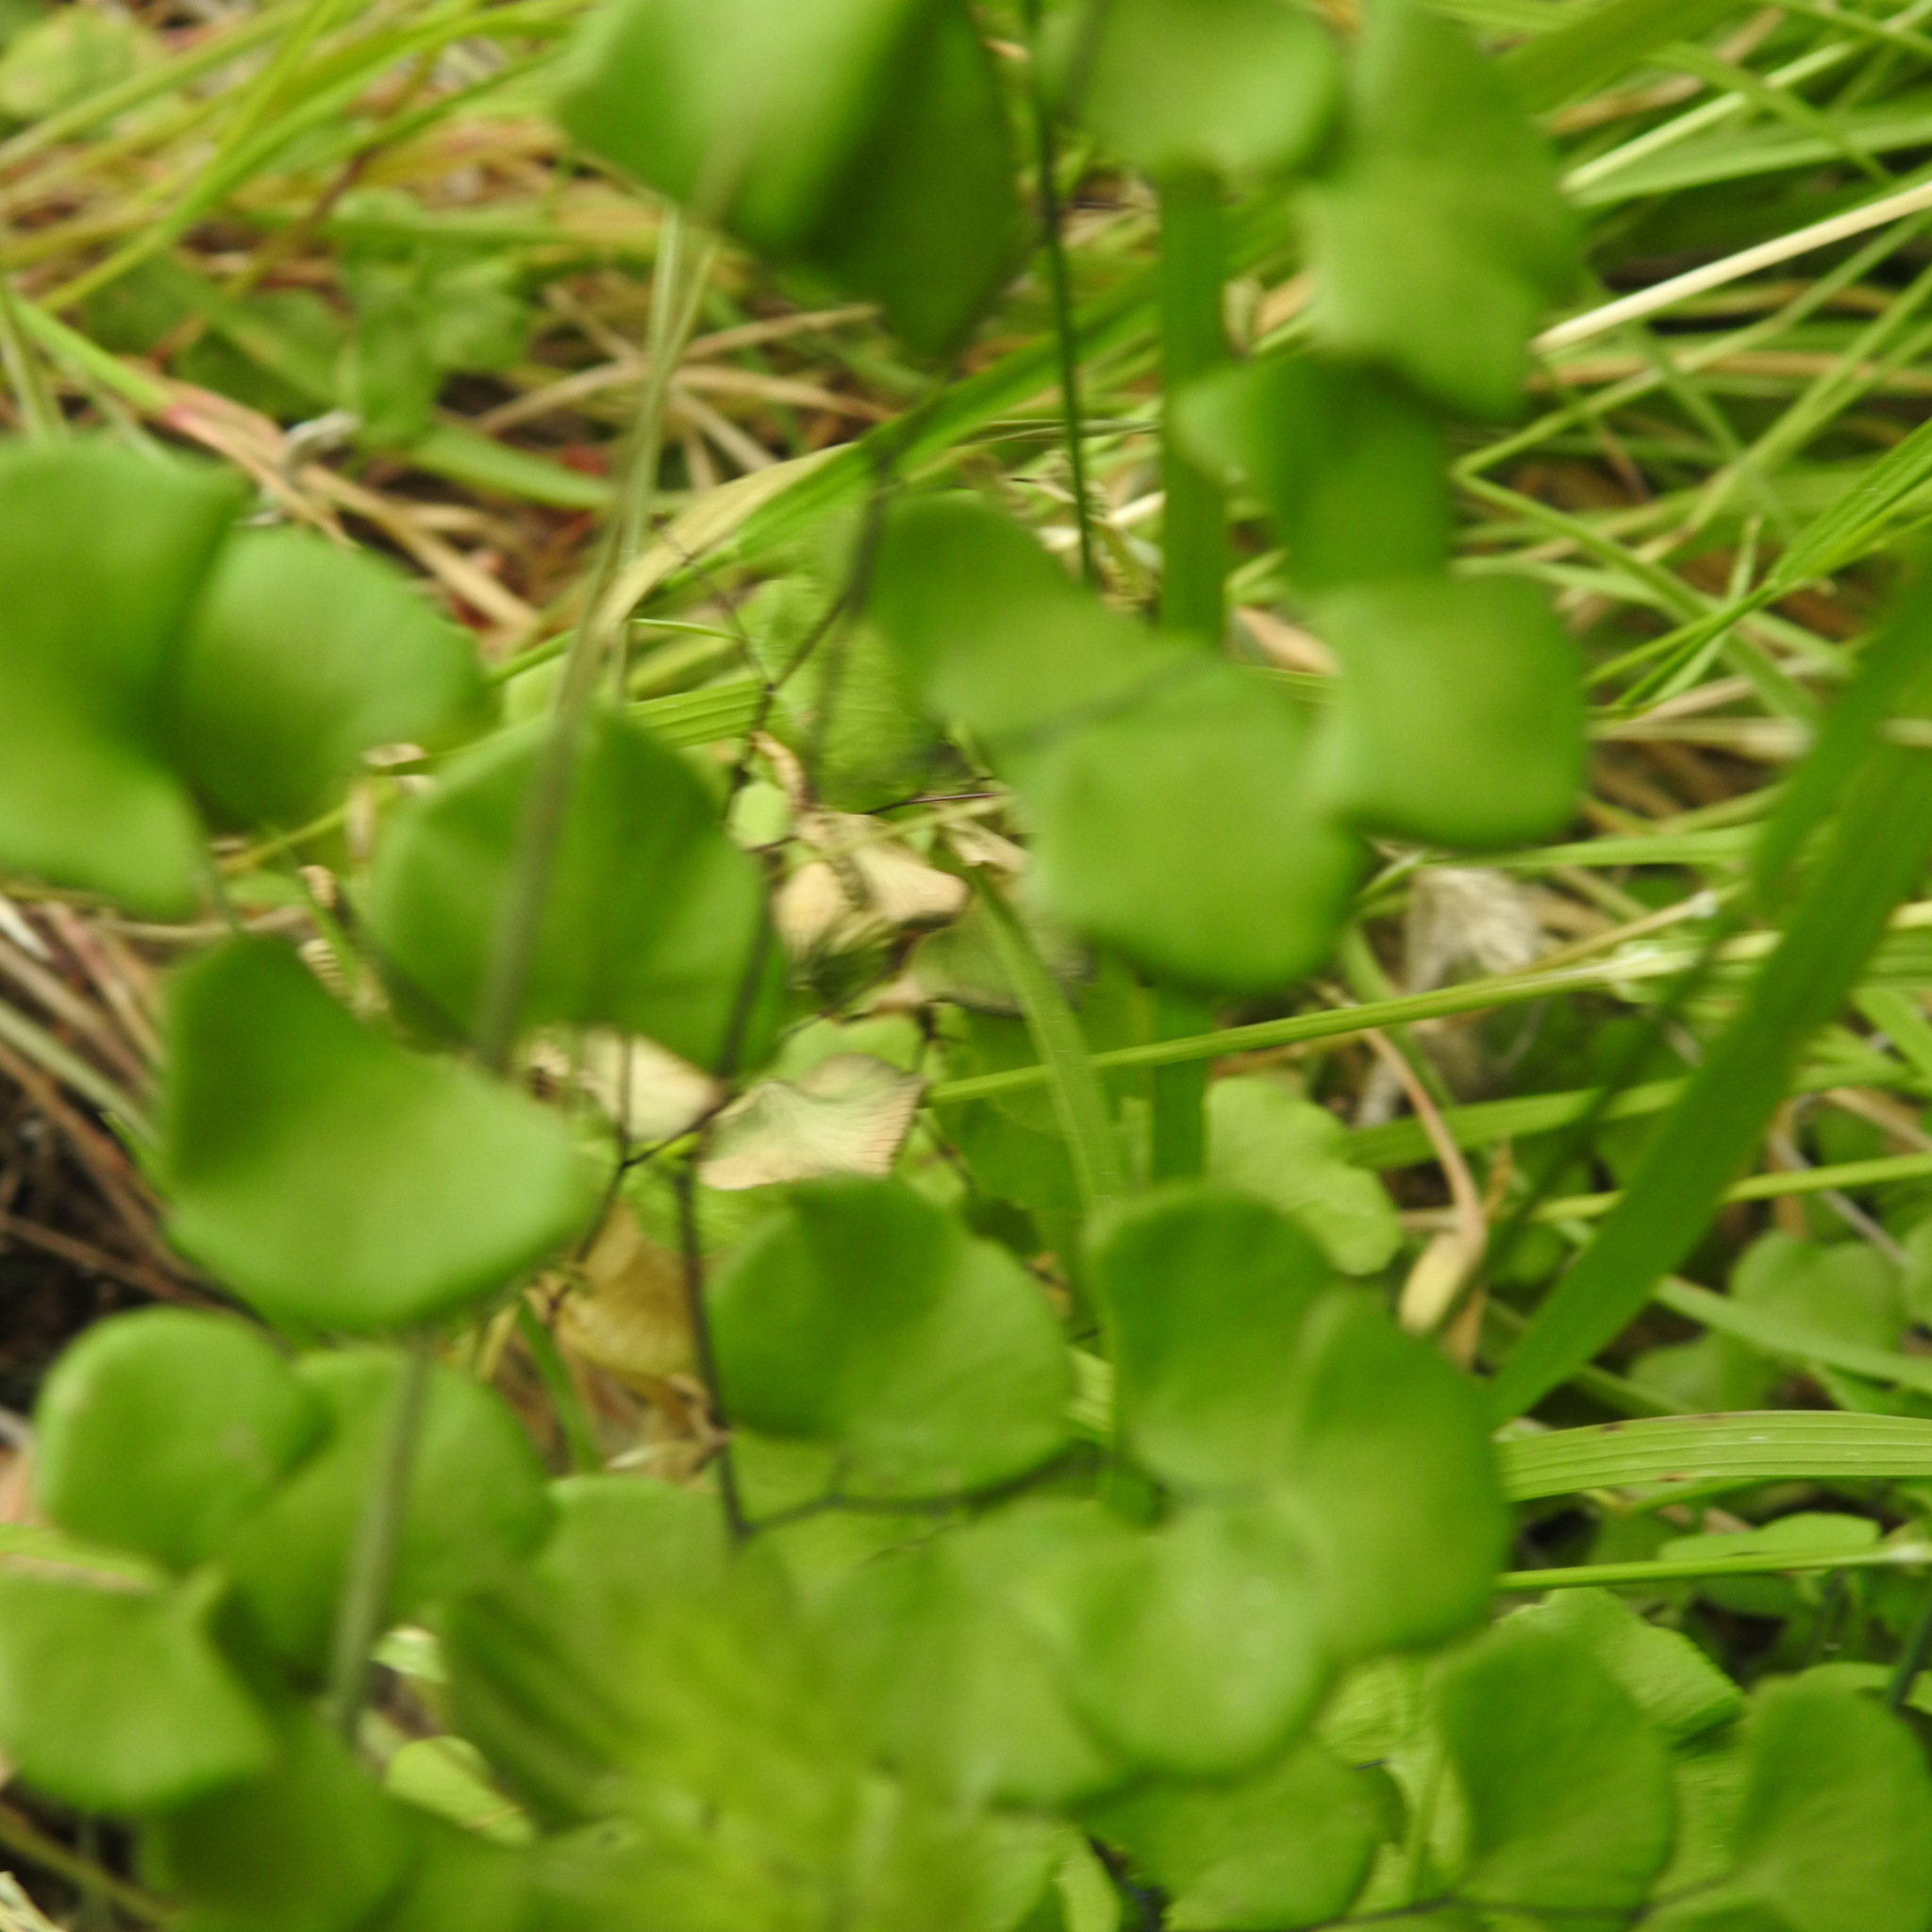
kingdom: Plantae
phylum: Tracheophyta
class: Polypodiopsida
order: Polypodiales
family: Pteridaceae
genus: Adiantum
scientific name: Adiantum jordanii
